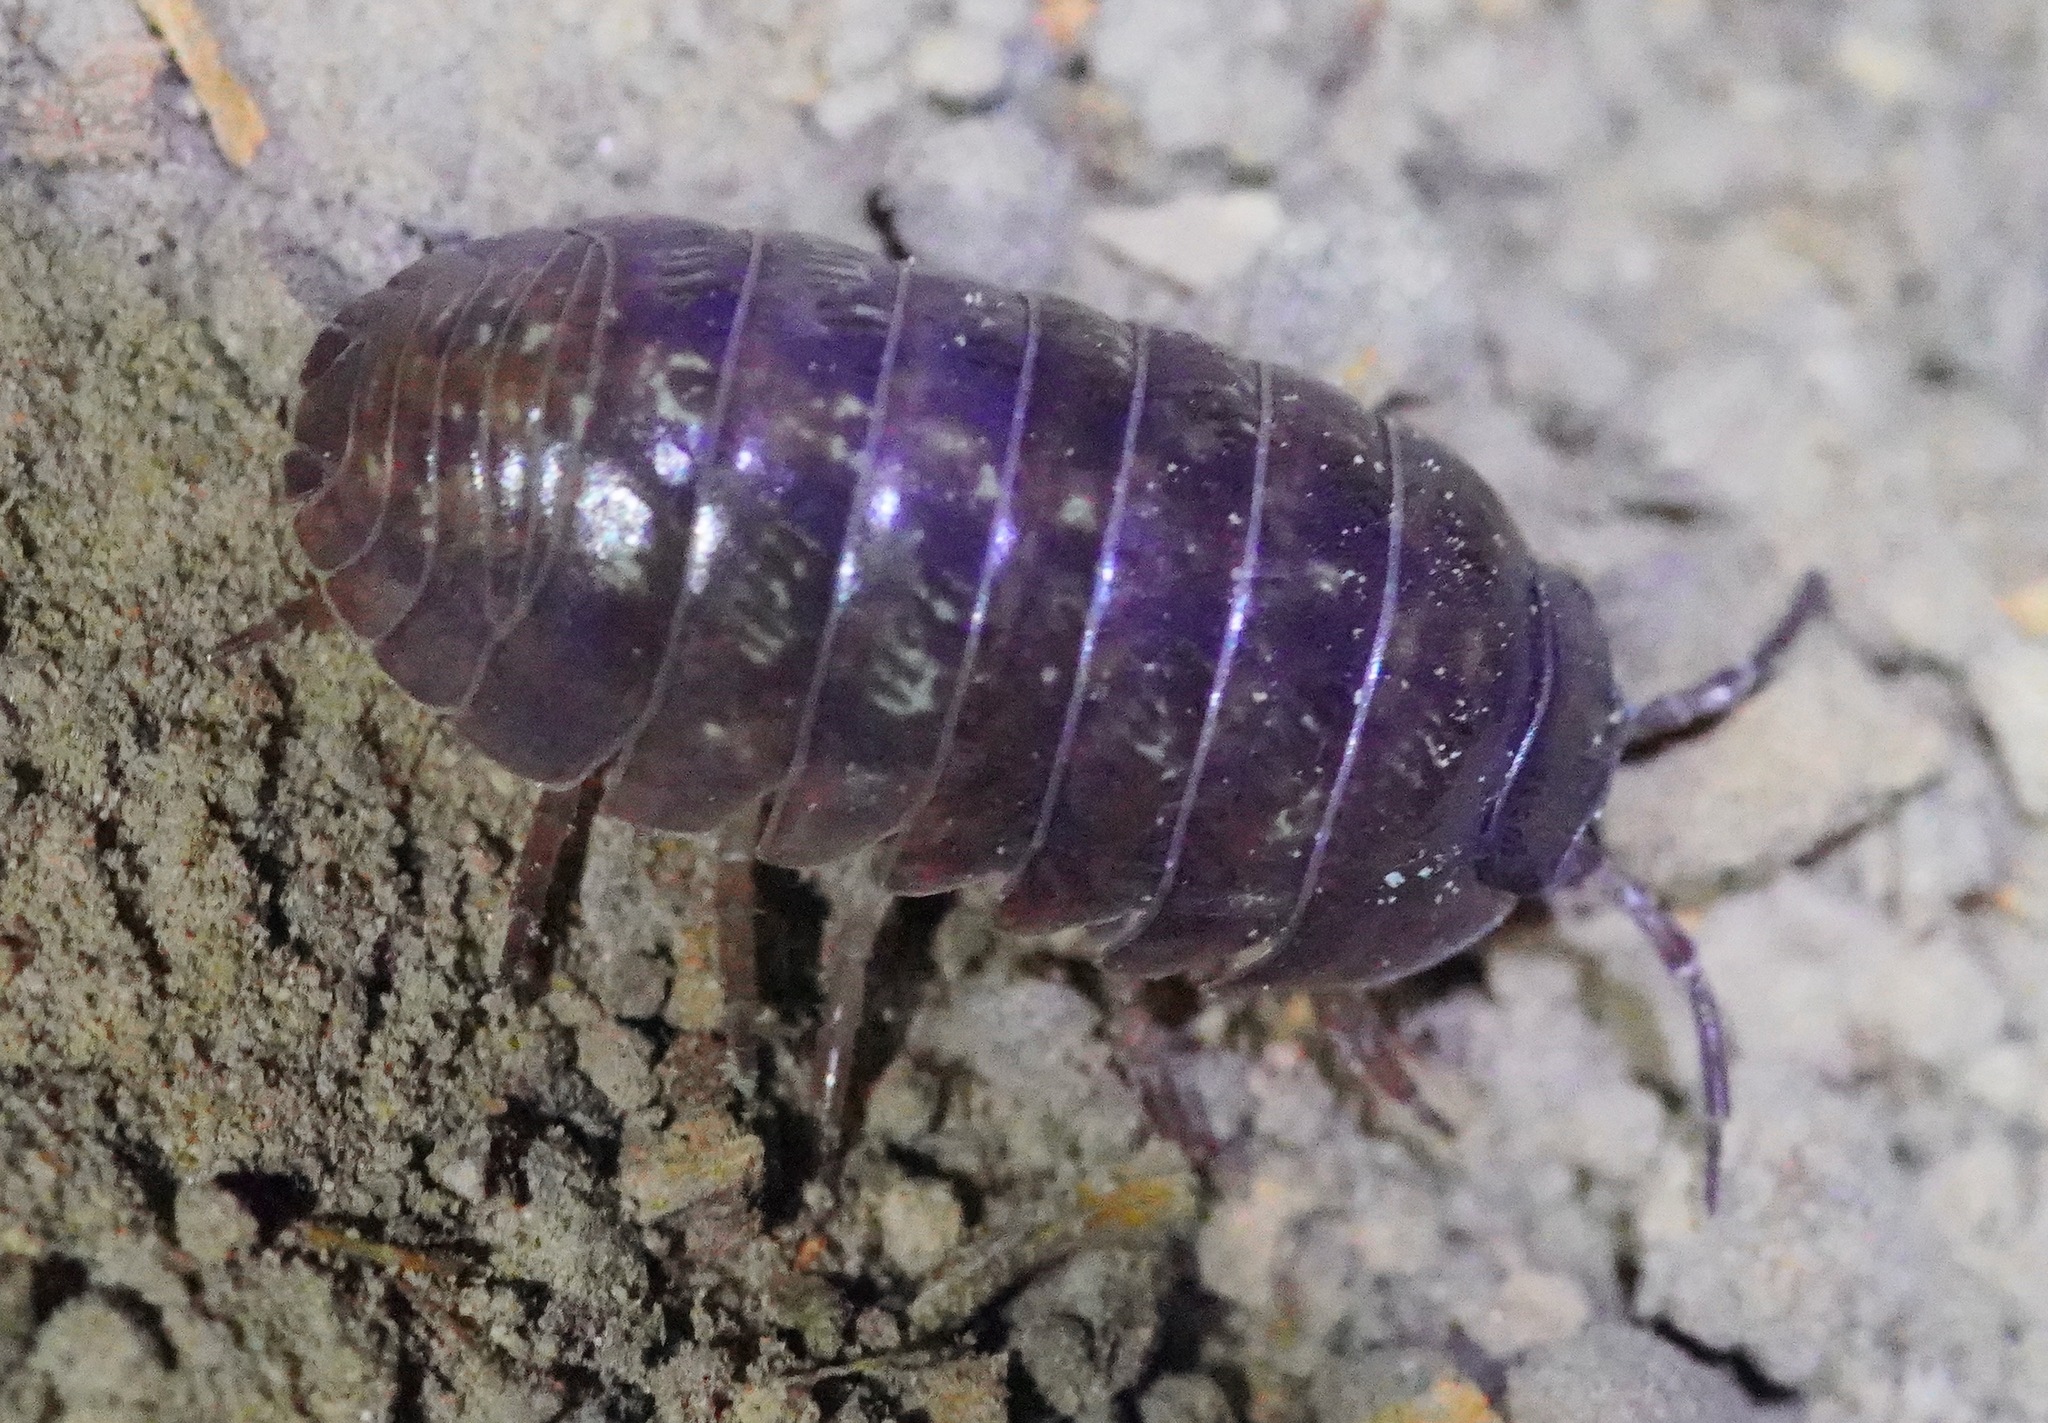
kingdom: Animalia
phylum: Arthropoda
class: Malacostraca
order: Isopoda
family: Armadillidiidae
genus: Armadillidium
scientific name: Armadillidium vulgare
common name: Common pill woodlouse
